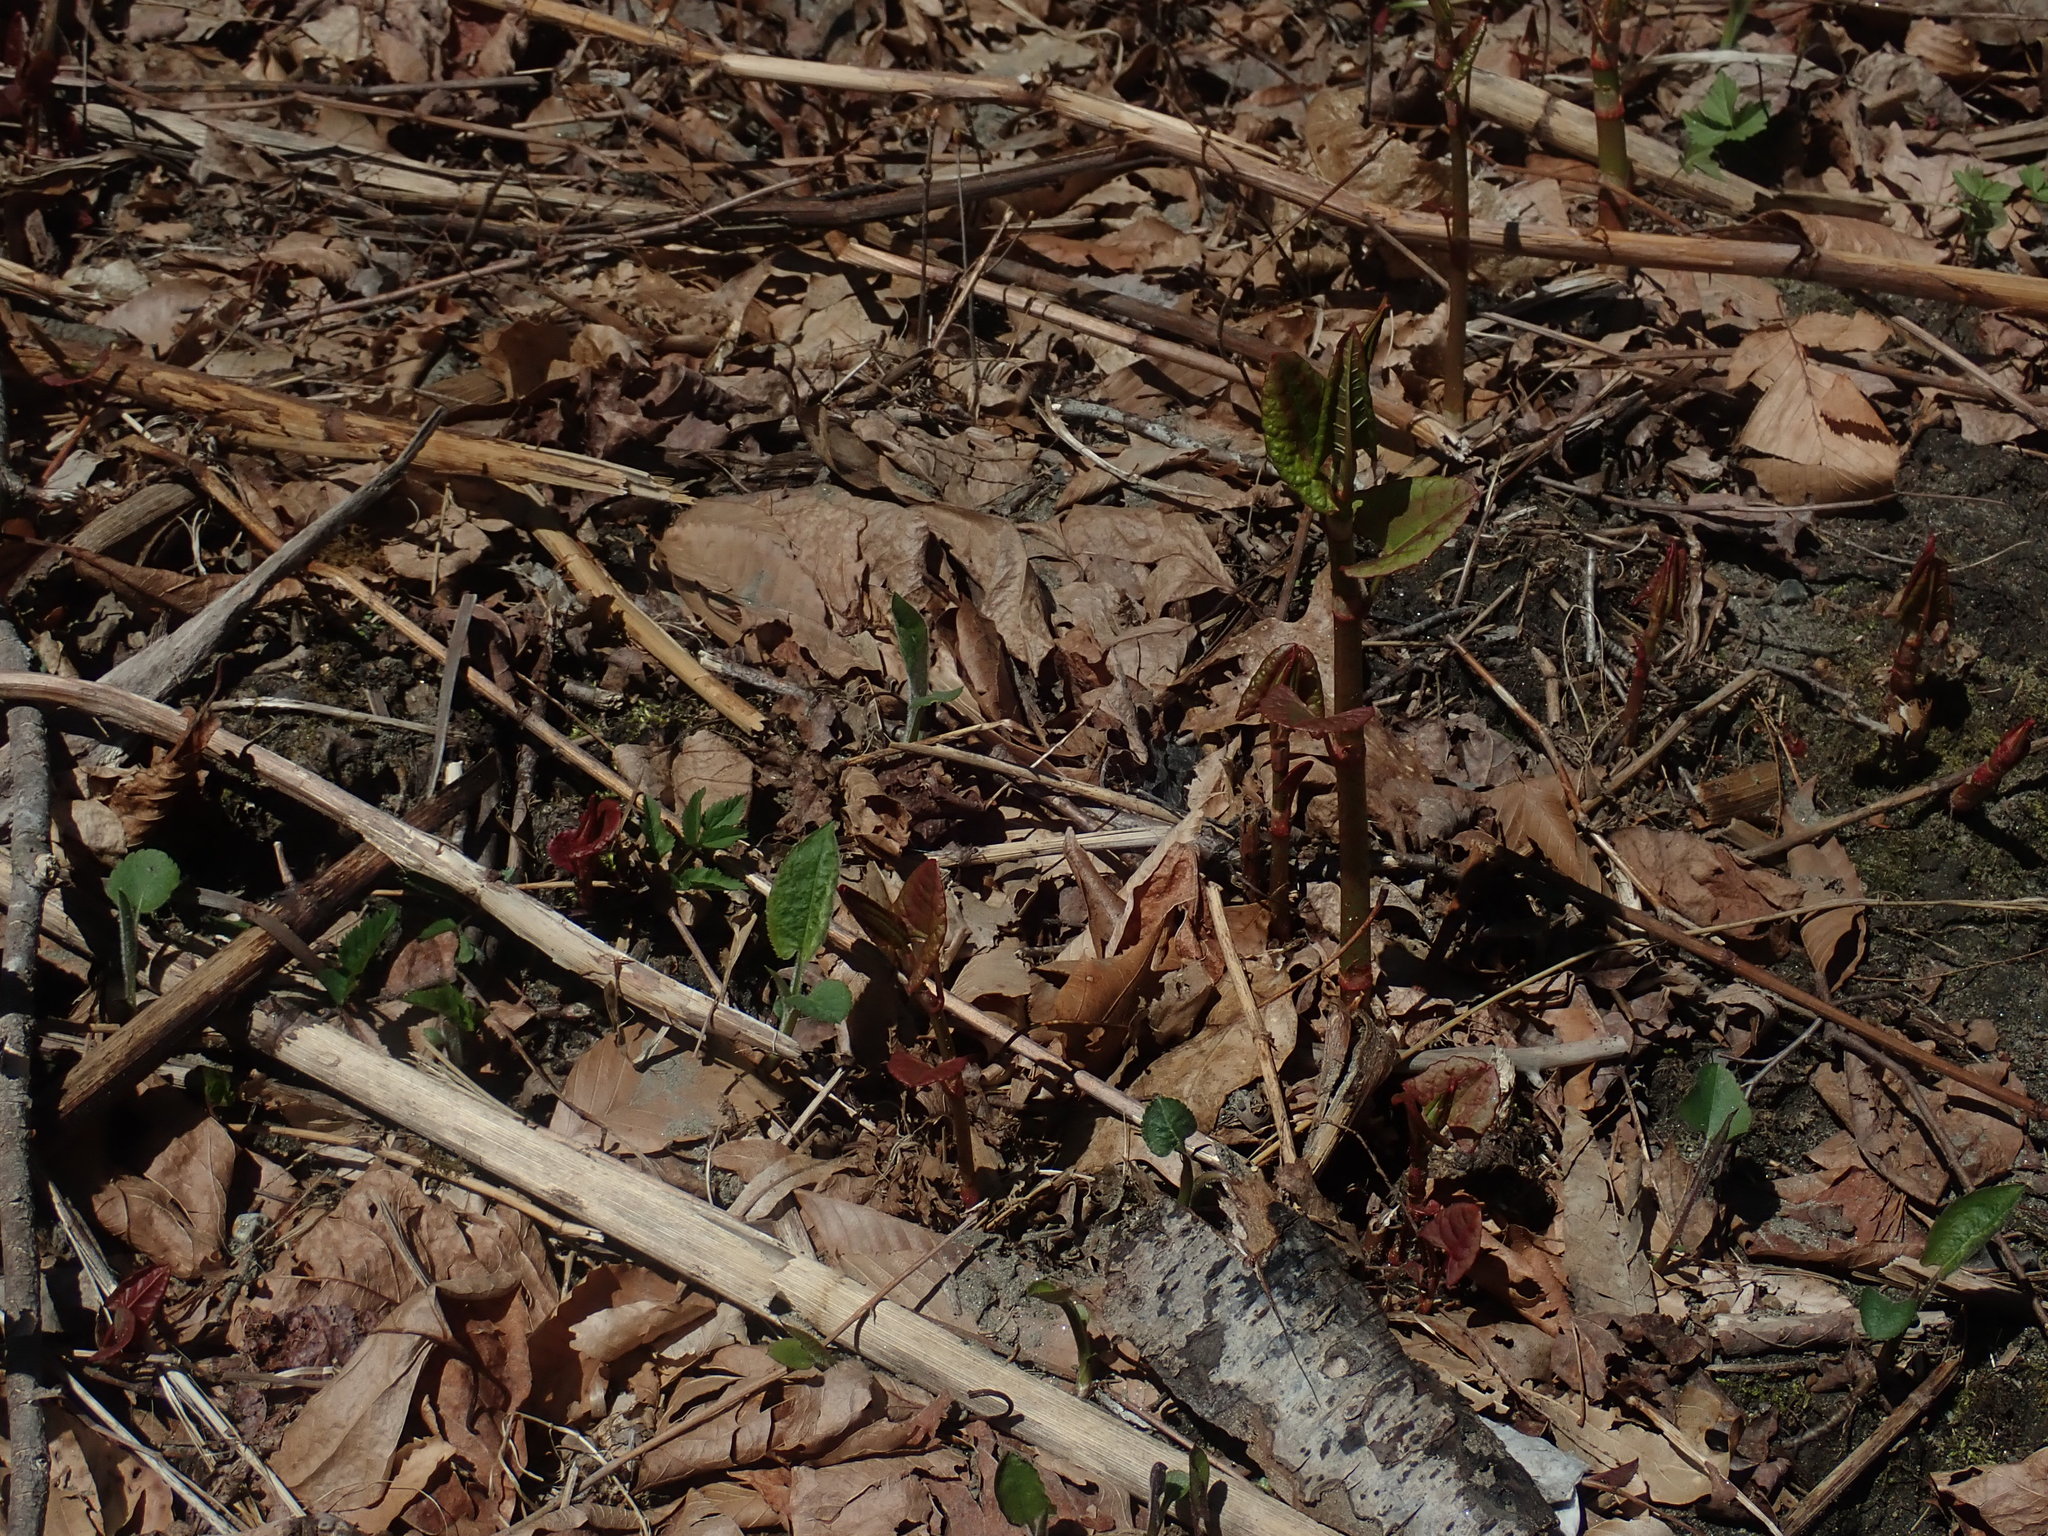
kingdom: Plantae
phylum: Tracheophyta
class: Magnoliopsida
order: Caryophyllales
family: Polygonaceae
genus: Reynoutria
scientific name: Reynoutria japonica
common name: Japanese knotweed
